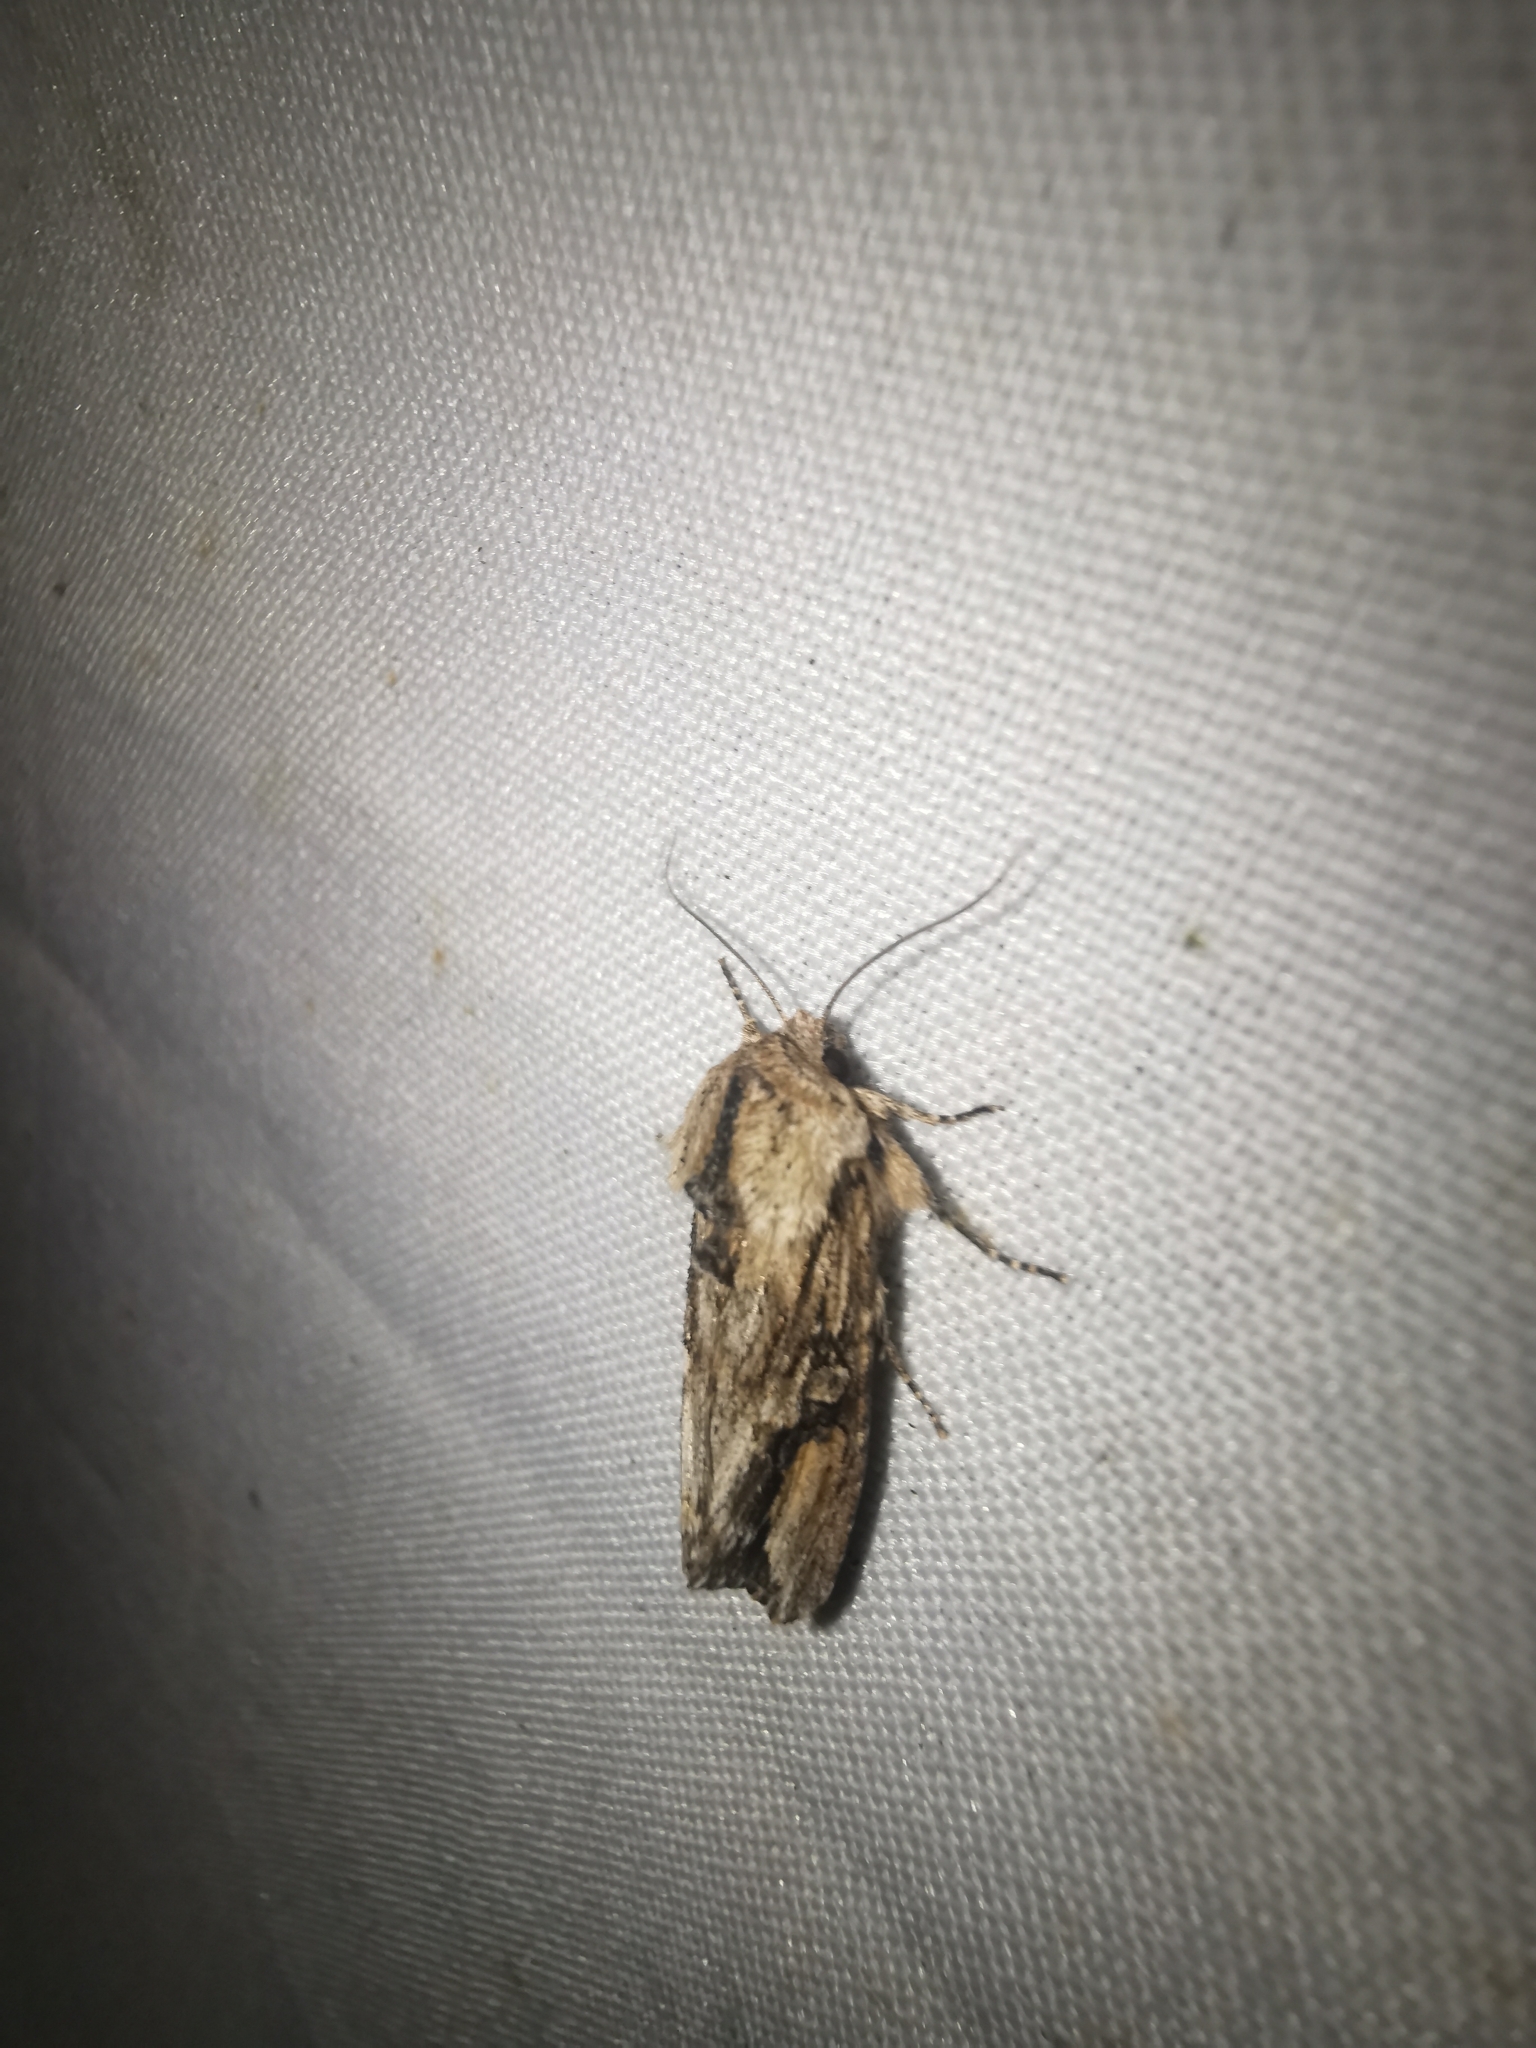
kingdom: Animalia
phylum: Arthropoda
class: Insecta
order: Lepidoptera
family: Noctuidae
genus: Egira
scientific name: Egira conspicillaris
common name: Silver cloud
